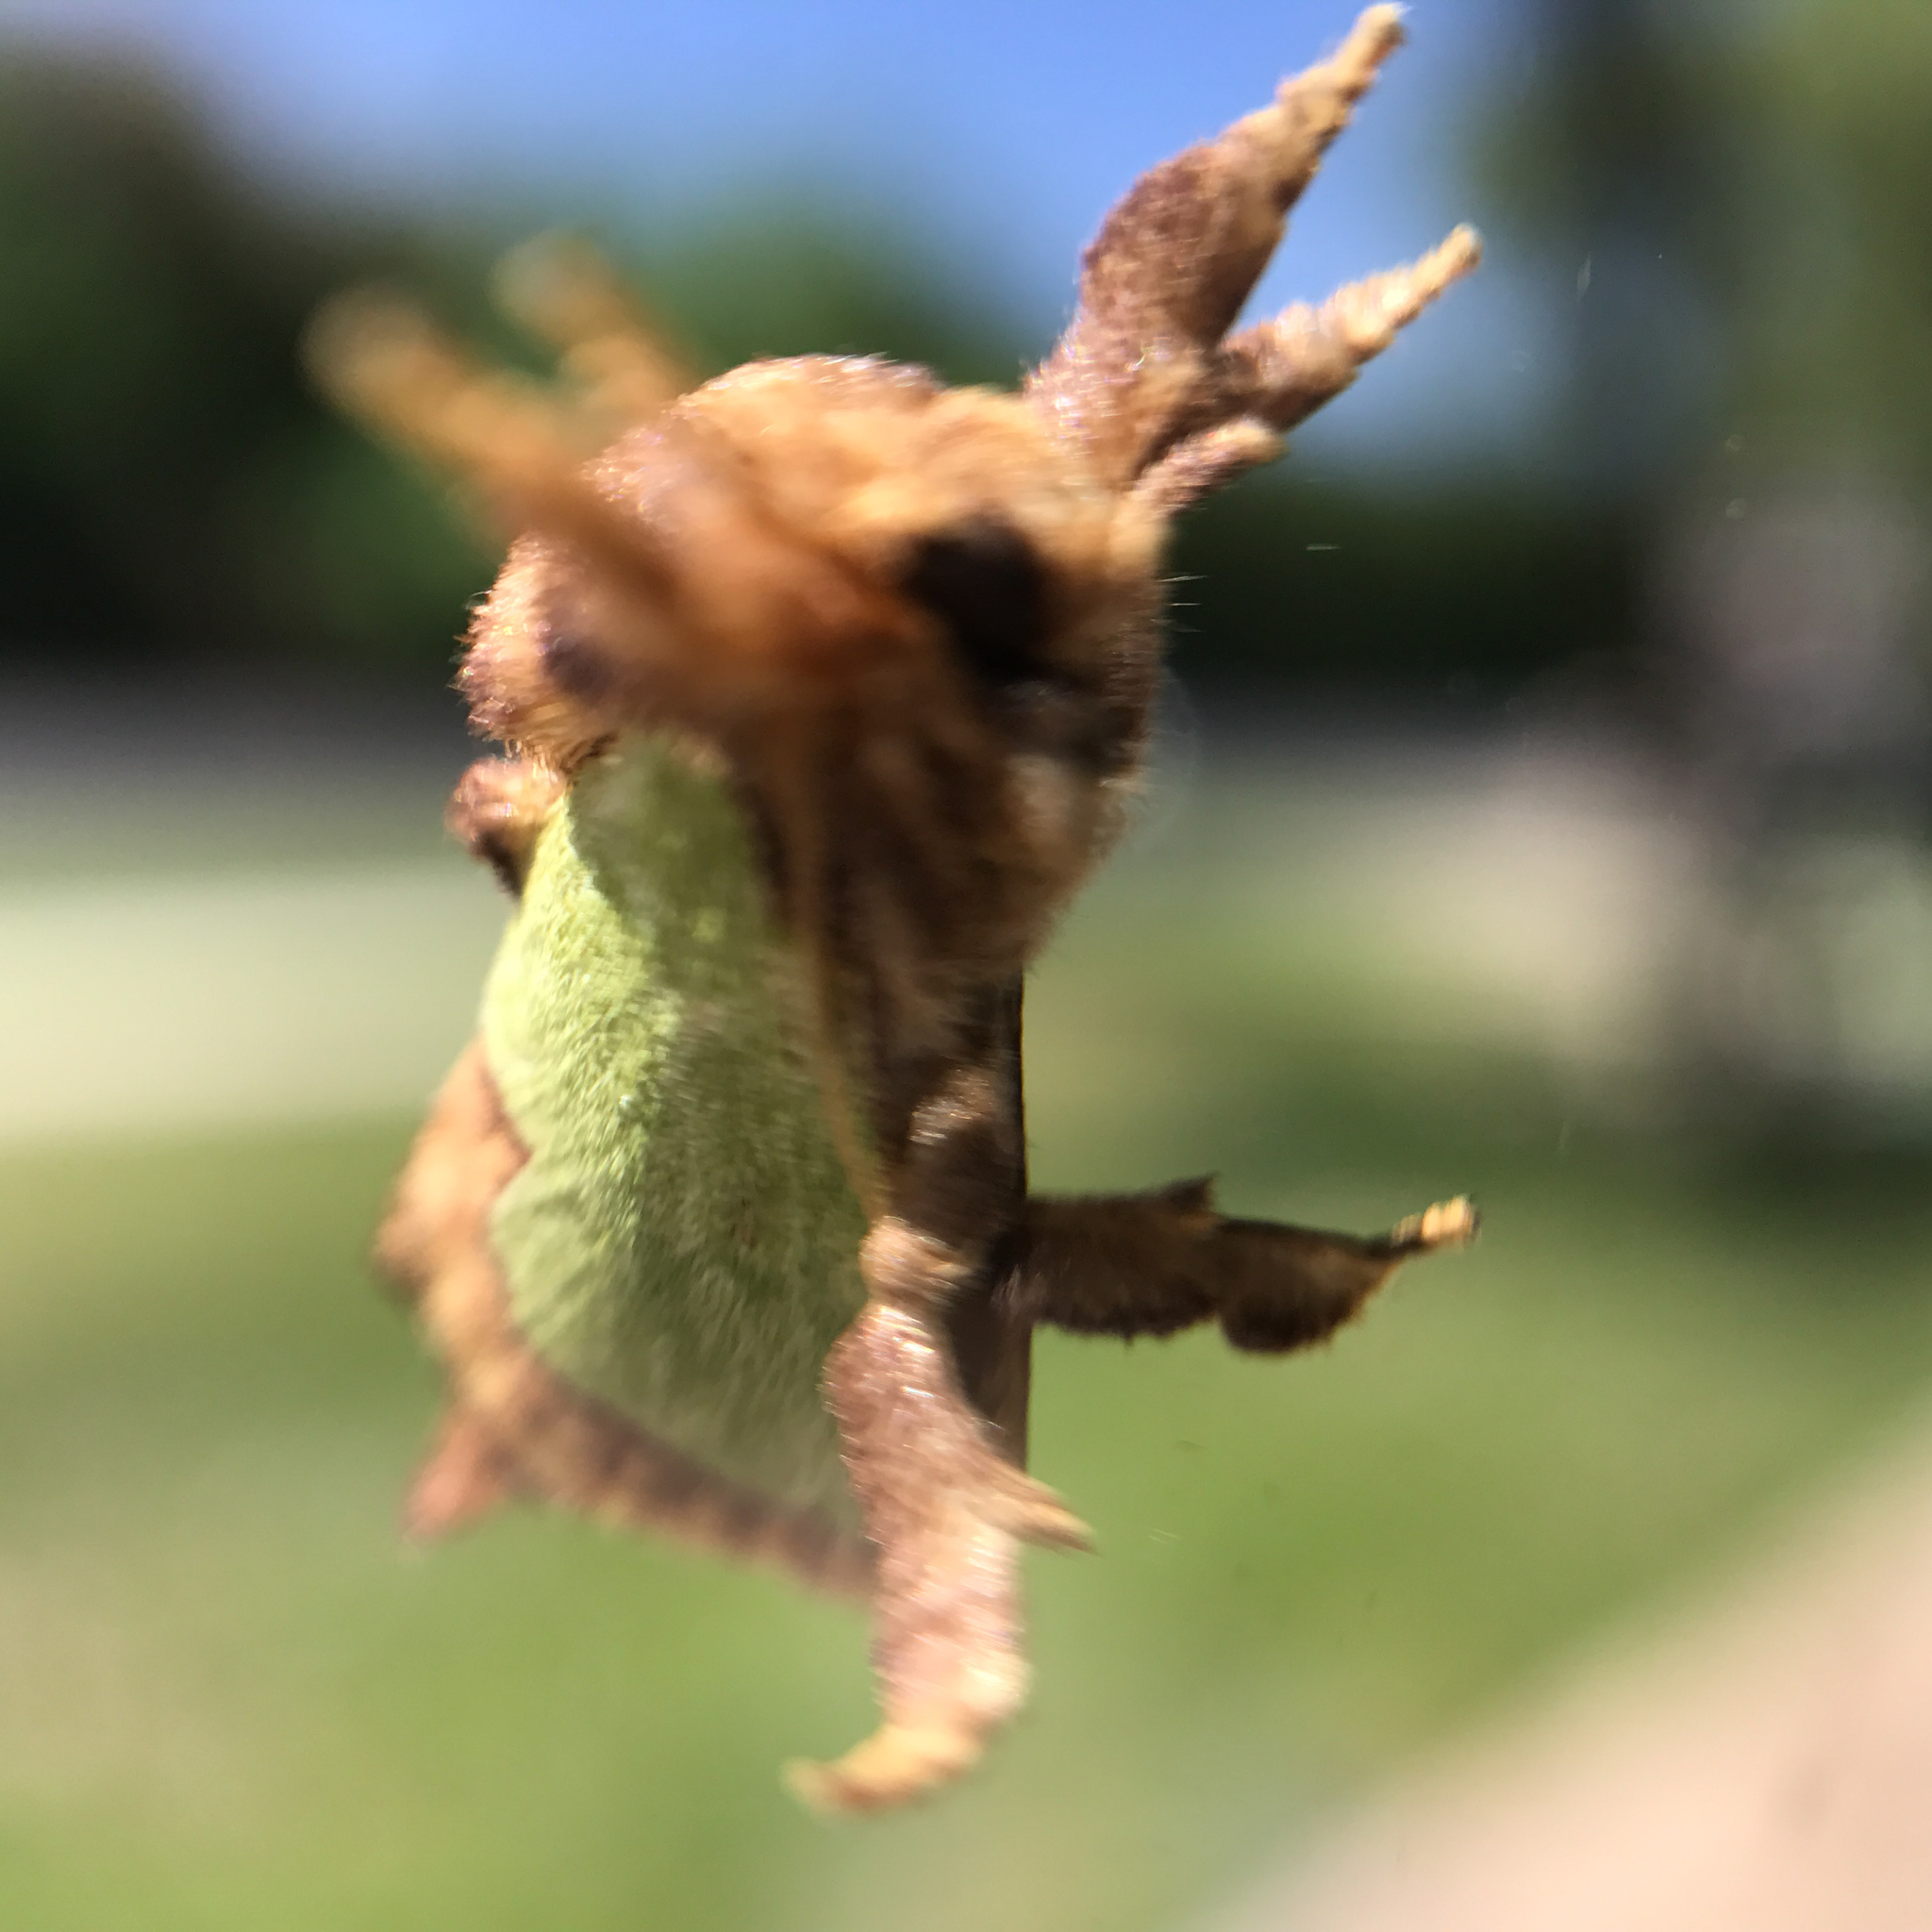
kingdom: Animalia
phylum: Arthropoda
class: Insecta
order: Lepidoptera
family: Limacodidae
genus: Euclea
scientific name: Euclea incisa
